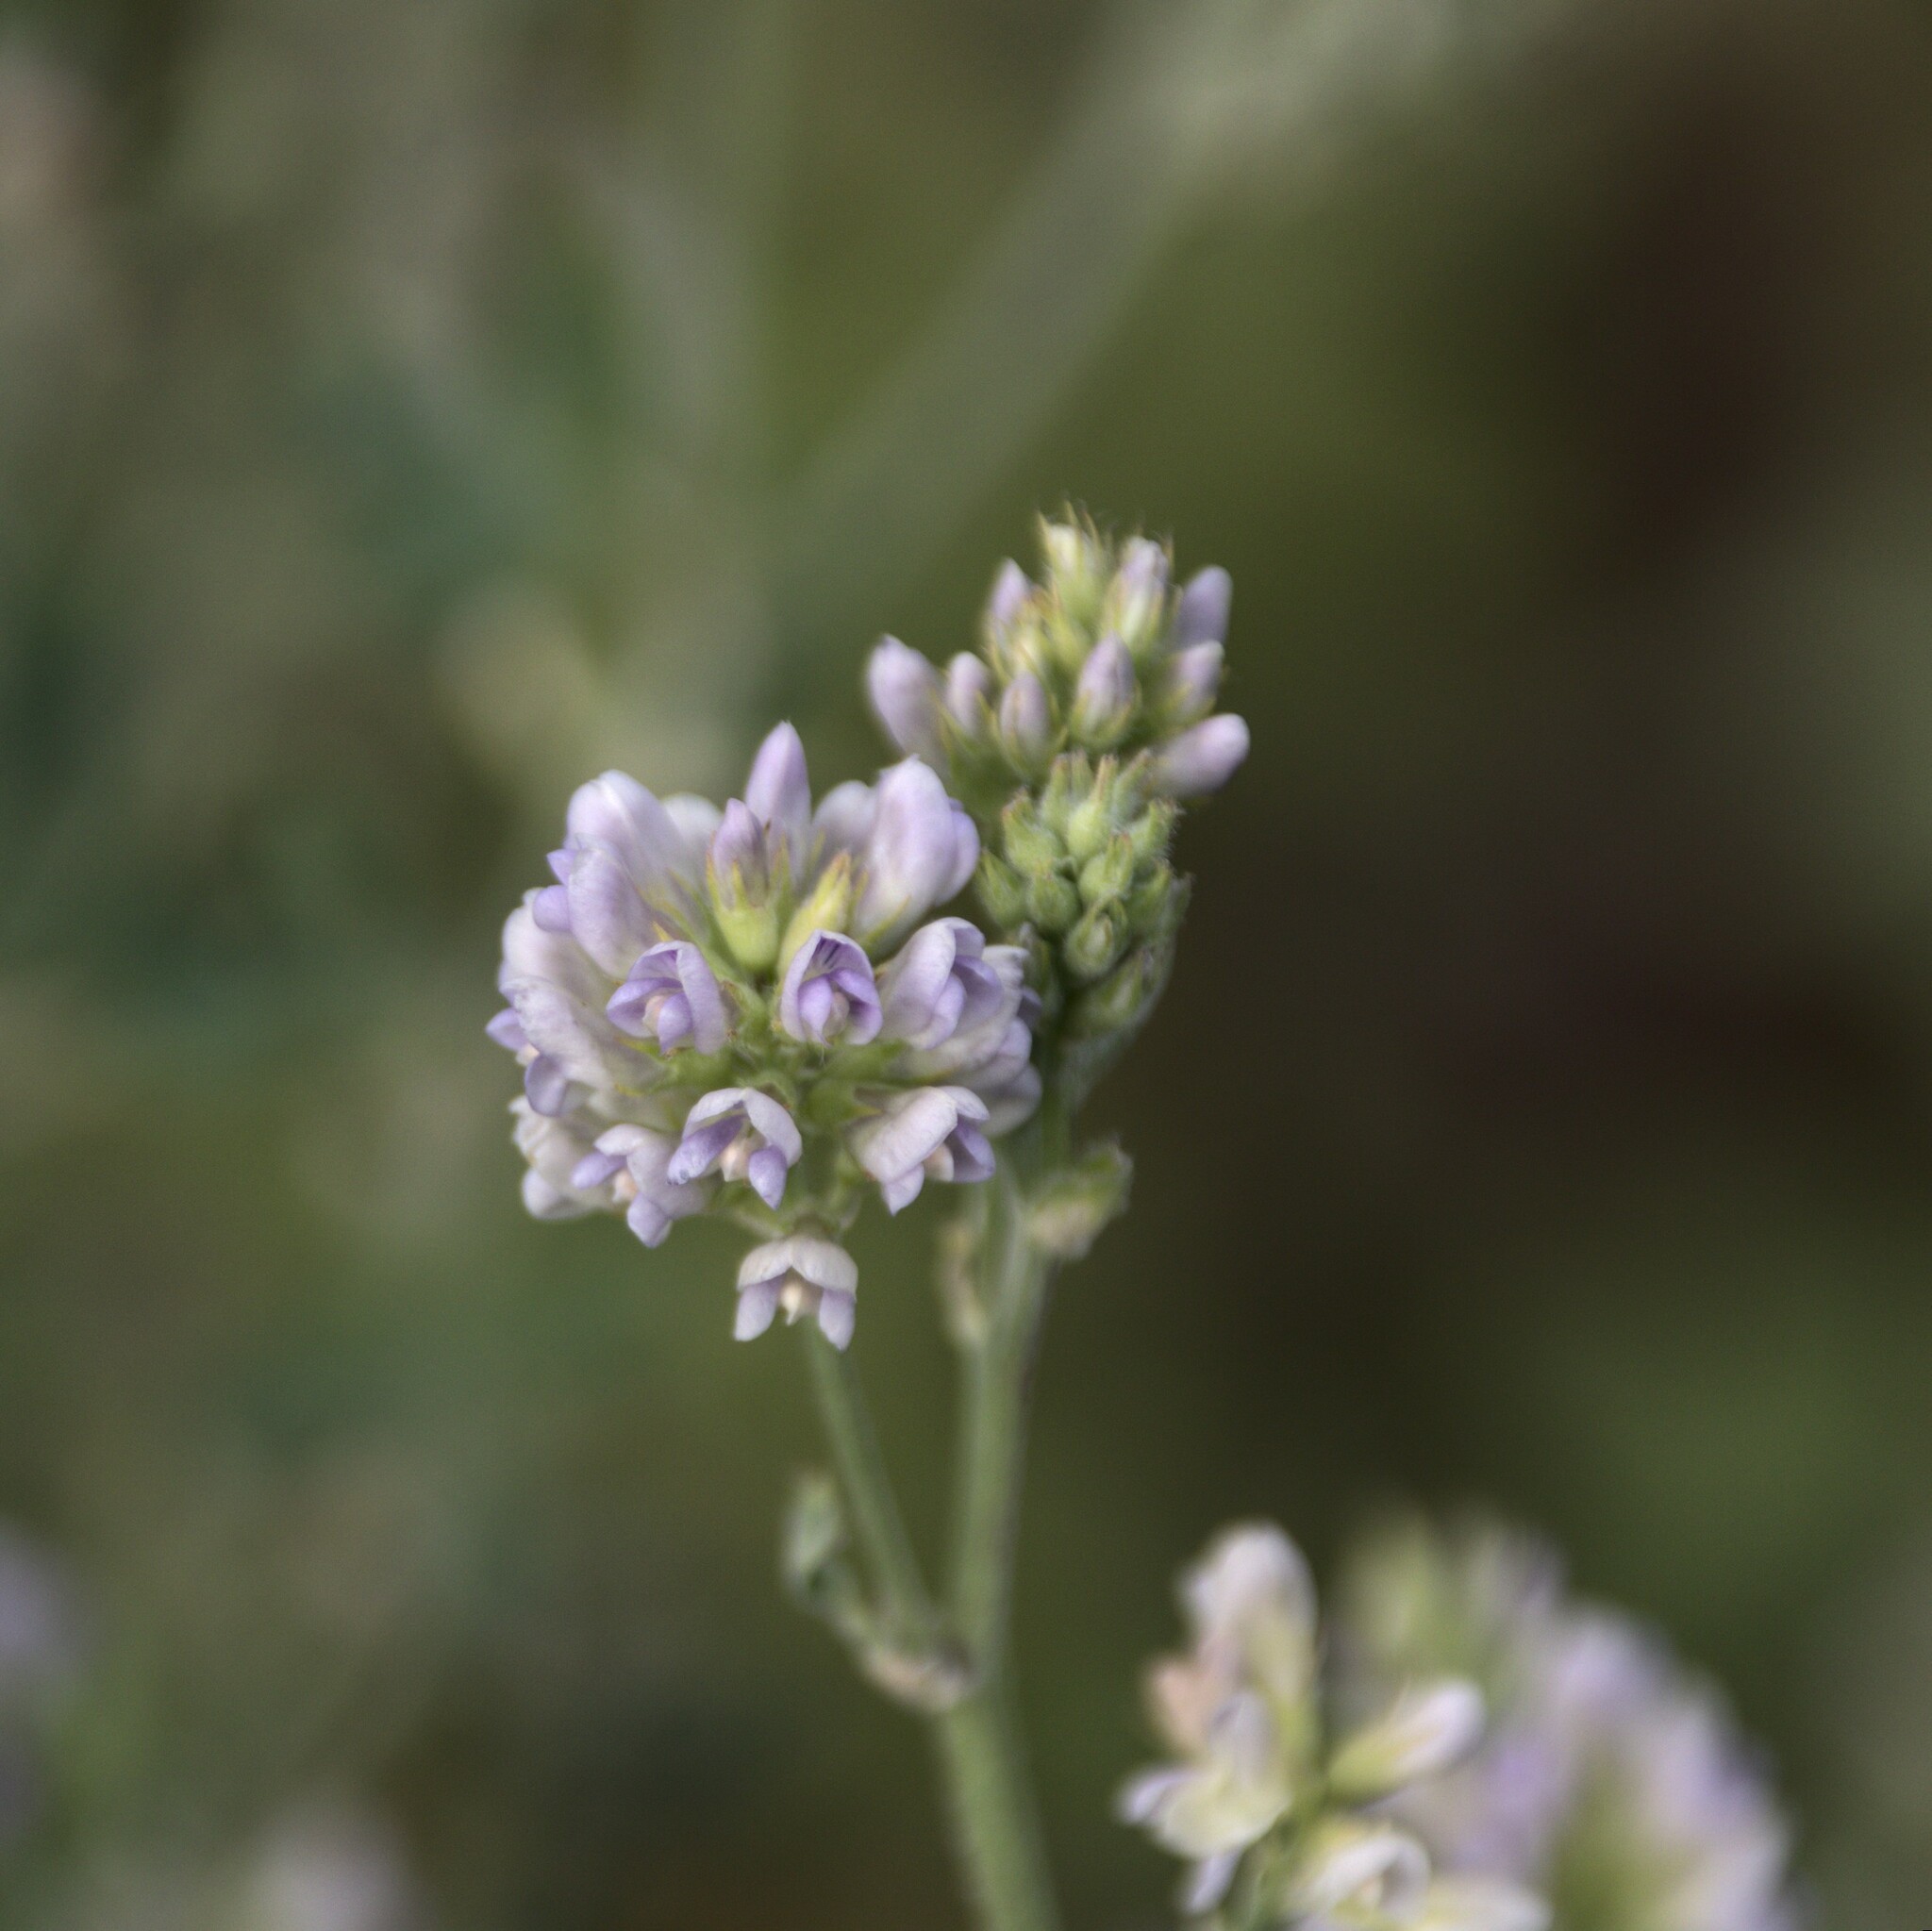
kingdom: Plantae
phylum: Tracheophyta
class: Magnoliopsida
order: Fabales
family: Fabaceae
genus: Medicago
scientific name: Medicago sativa
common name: Alfalfa
